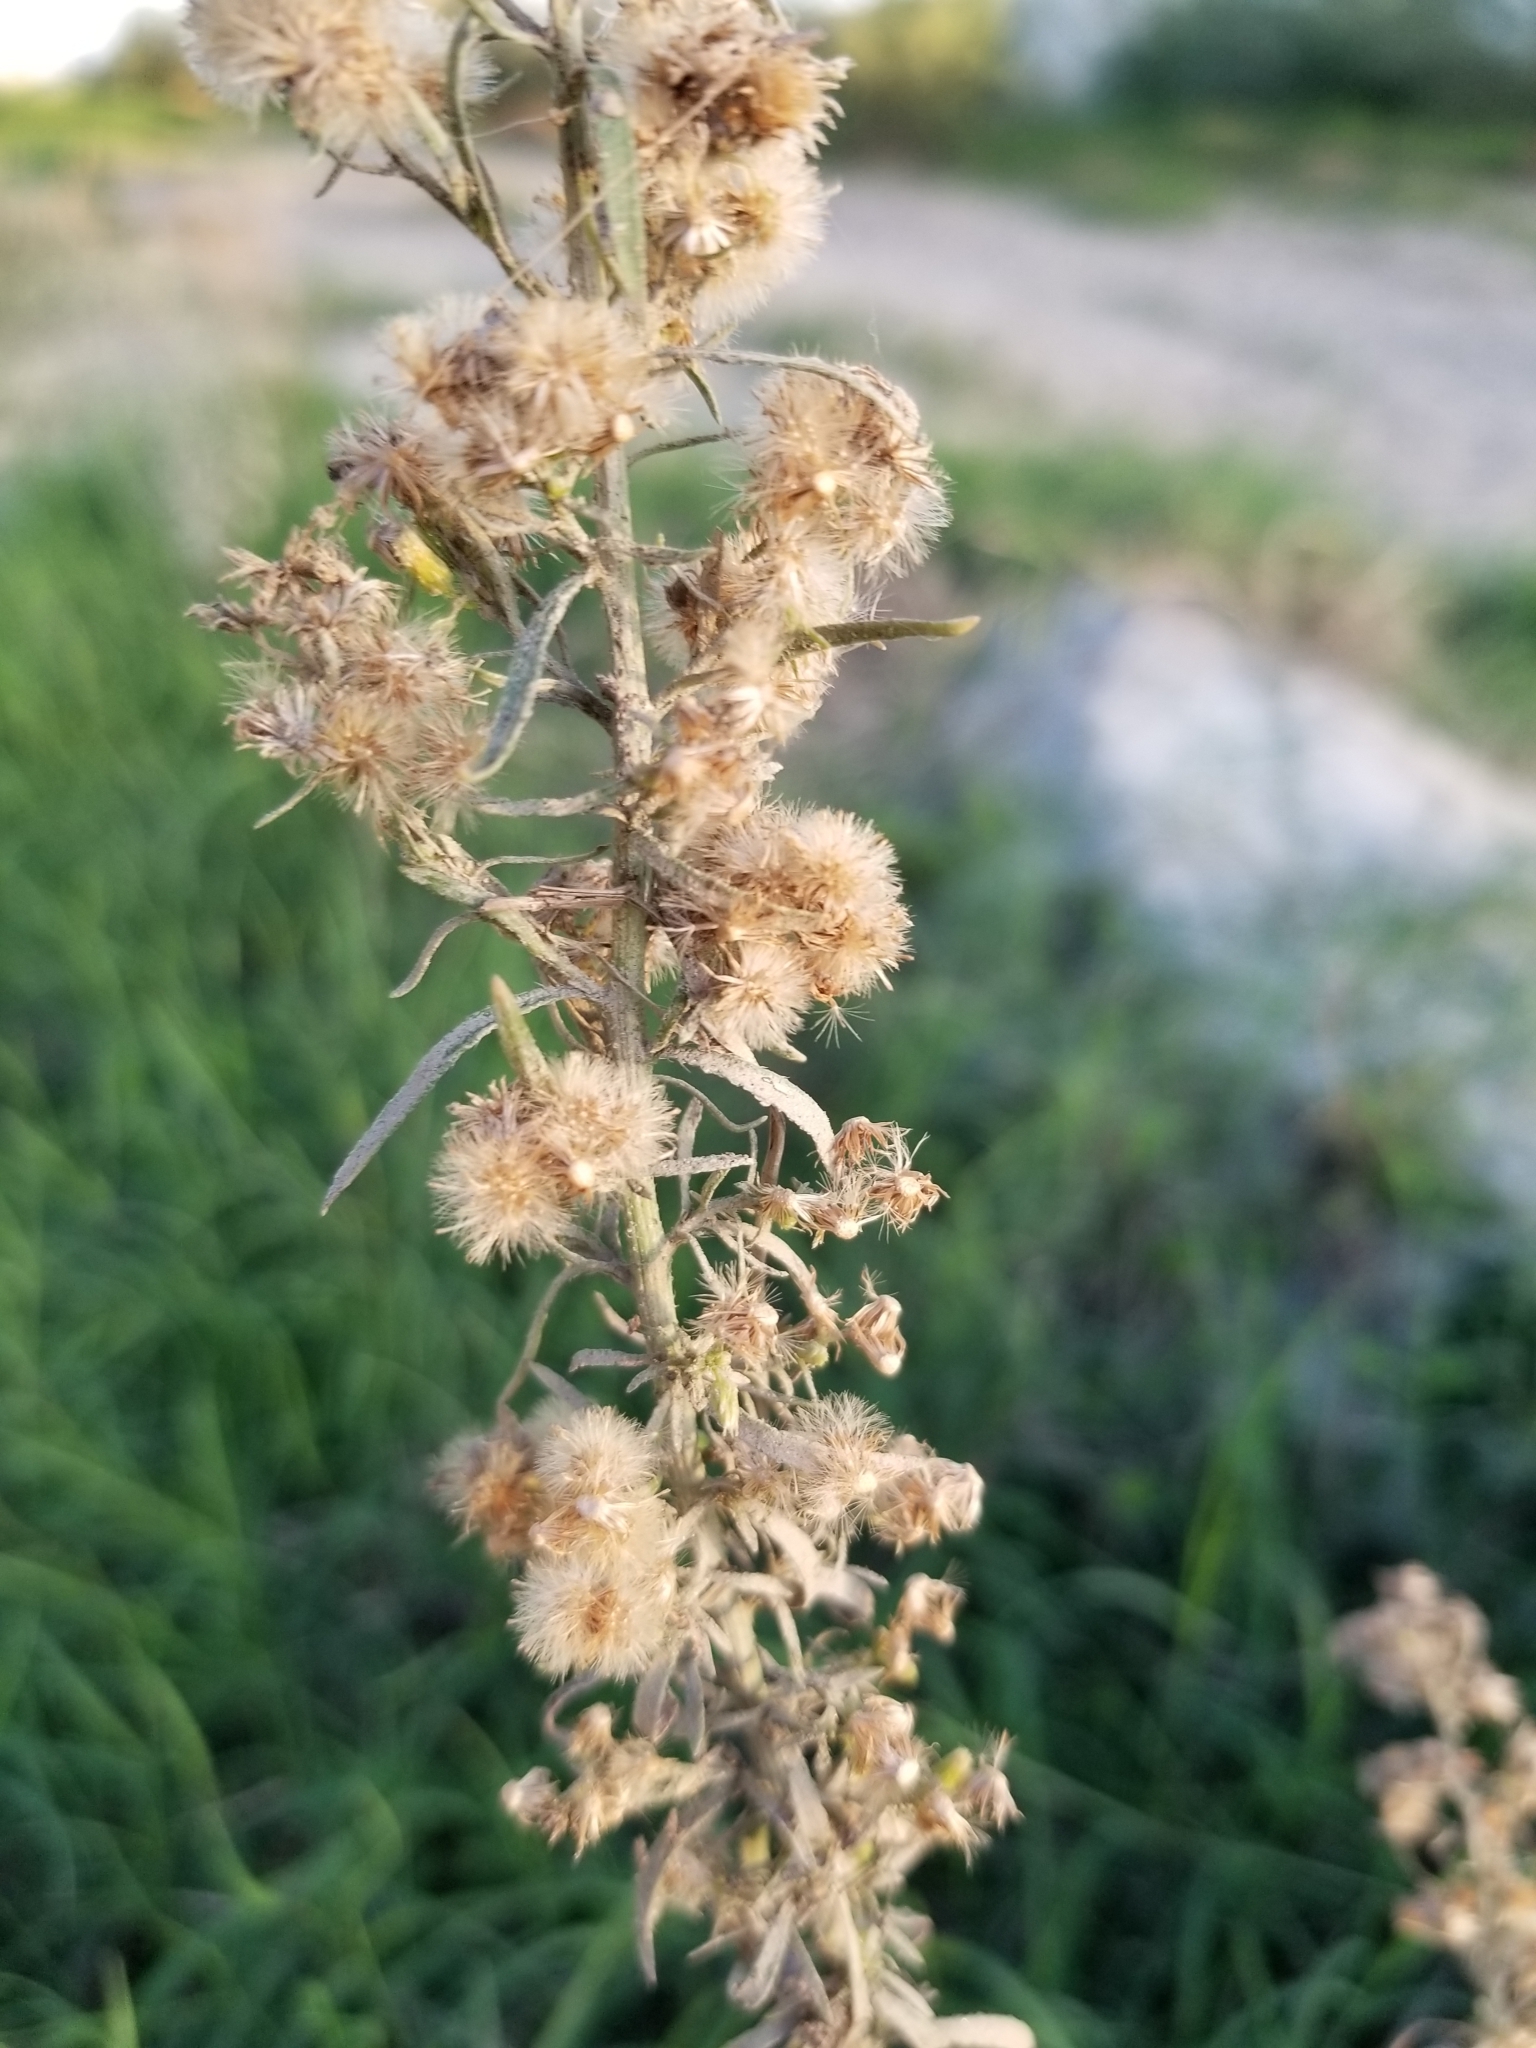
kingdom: Plantae
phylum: Tracheophyta
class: Magnoliopsida
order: Asterales
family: Asteraceae
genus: Erigeron
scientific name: Erigeron canadensis
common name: Canadian fleabane
